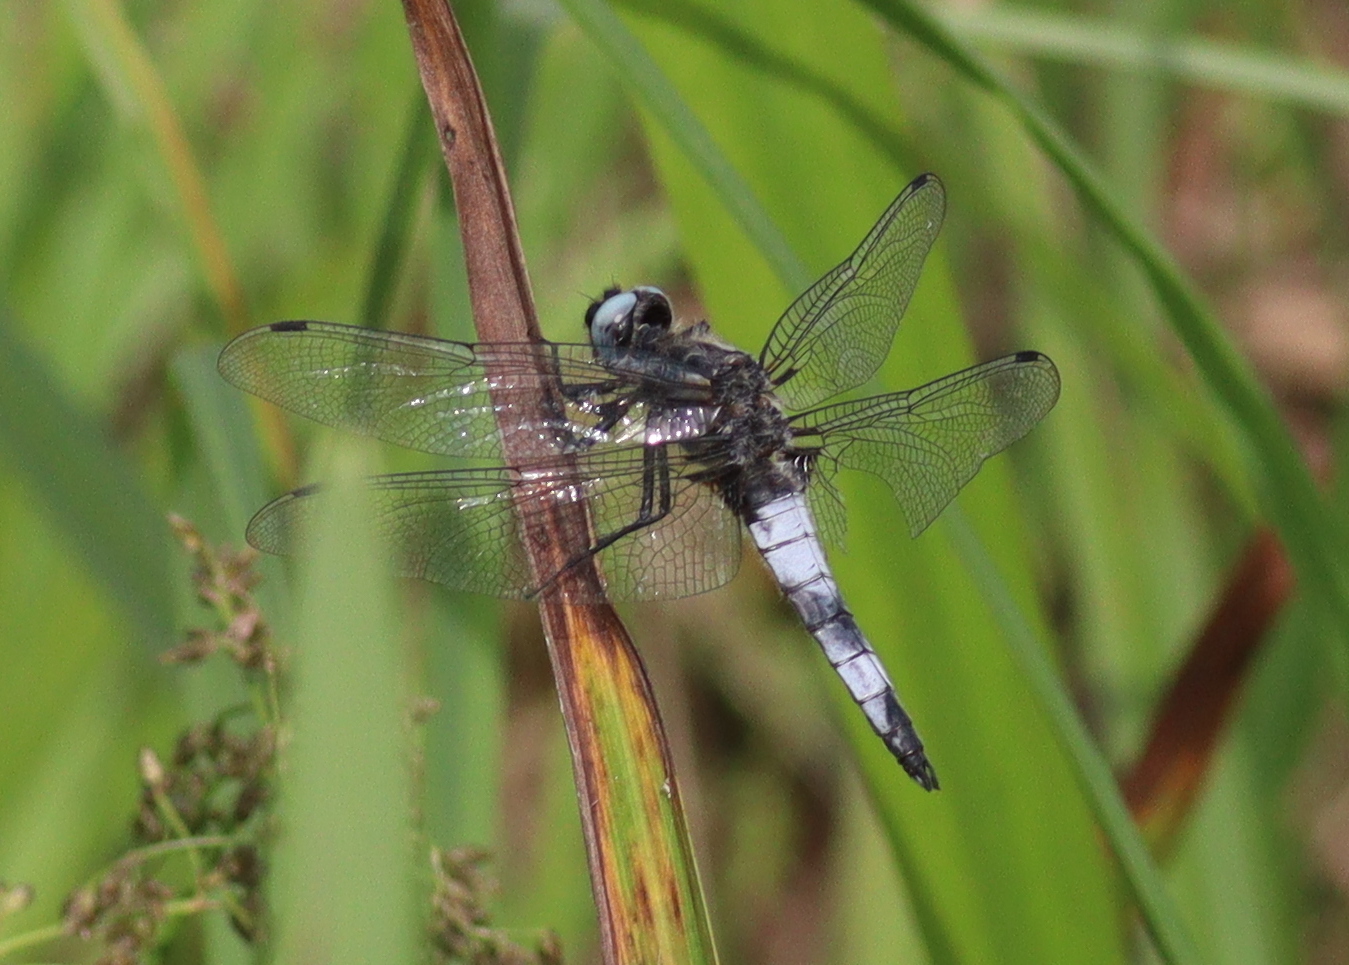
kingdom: Animalia
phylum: Arthropoda
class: Insecta
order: Odonata
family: Libellulidae
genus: Libellula
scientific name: Libellula fulva
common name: Blue chaser
